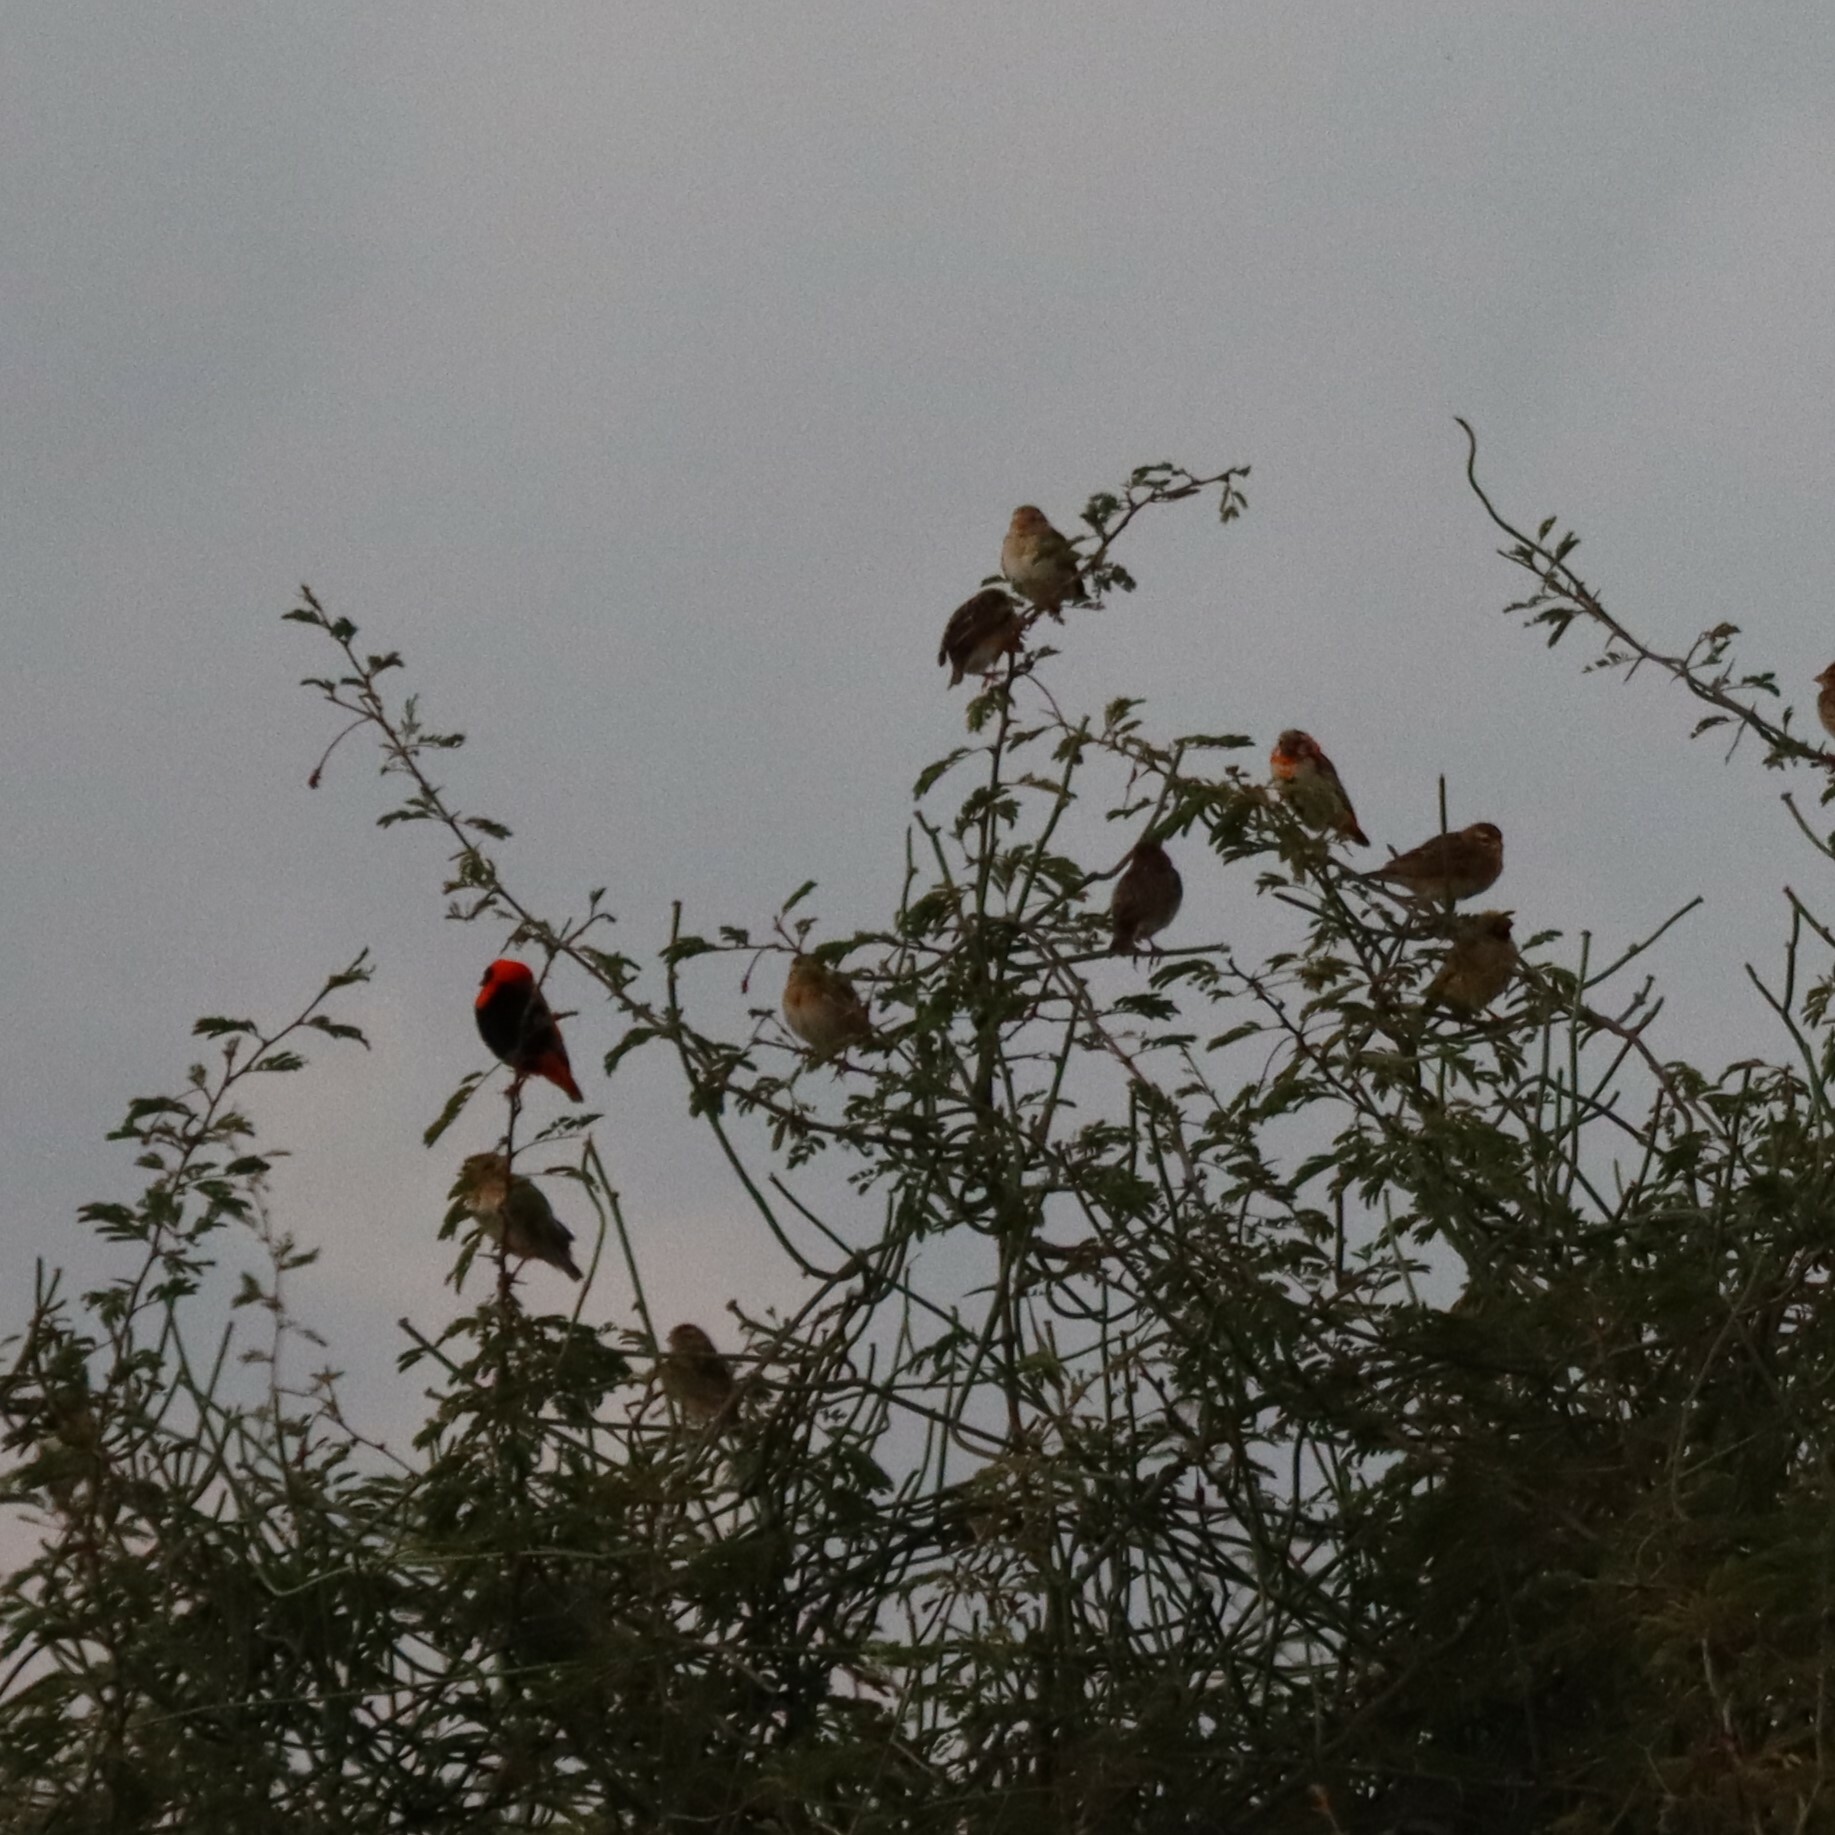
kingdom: Animalia
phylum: Chordata
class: Aves
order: Passeriformes
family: Ploceidae
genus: Euplectes
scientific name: Euplectes orix
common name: Southern red bishop
